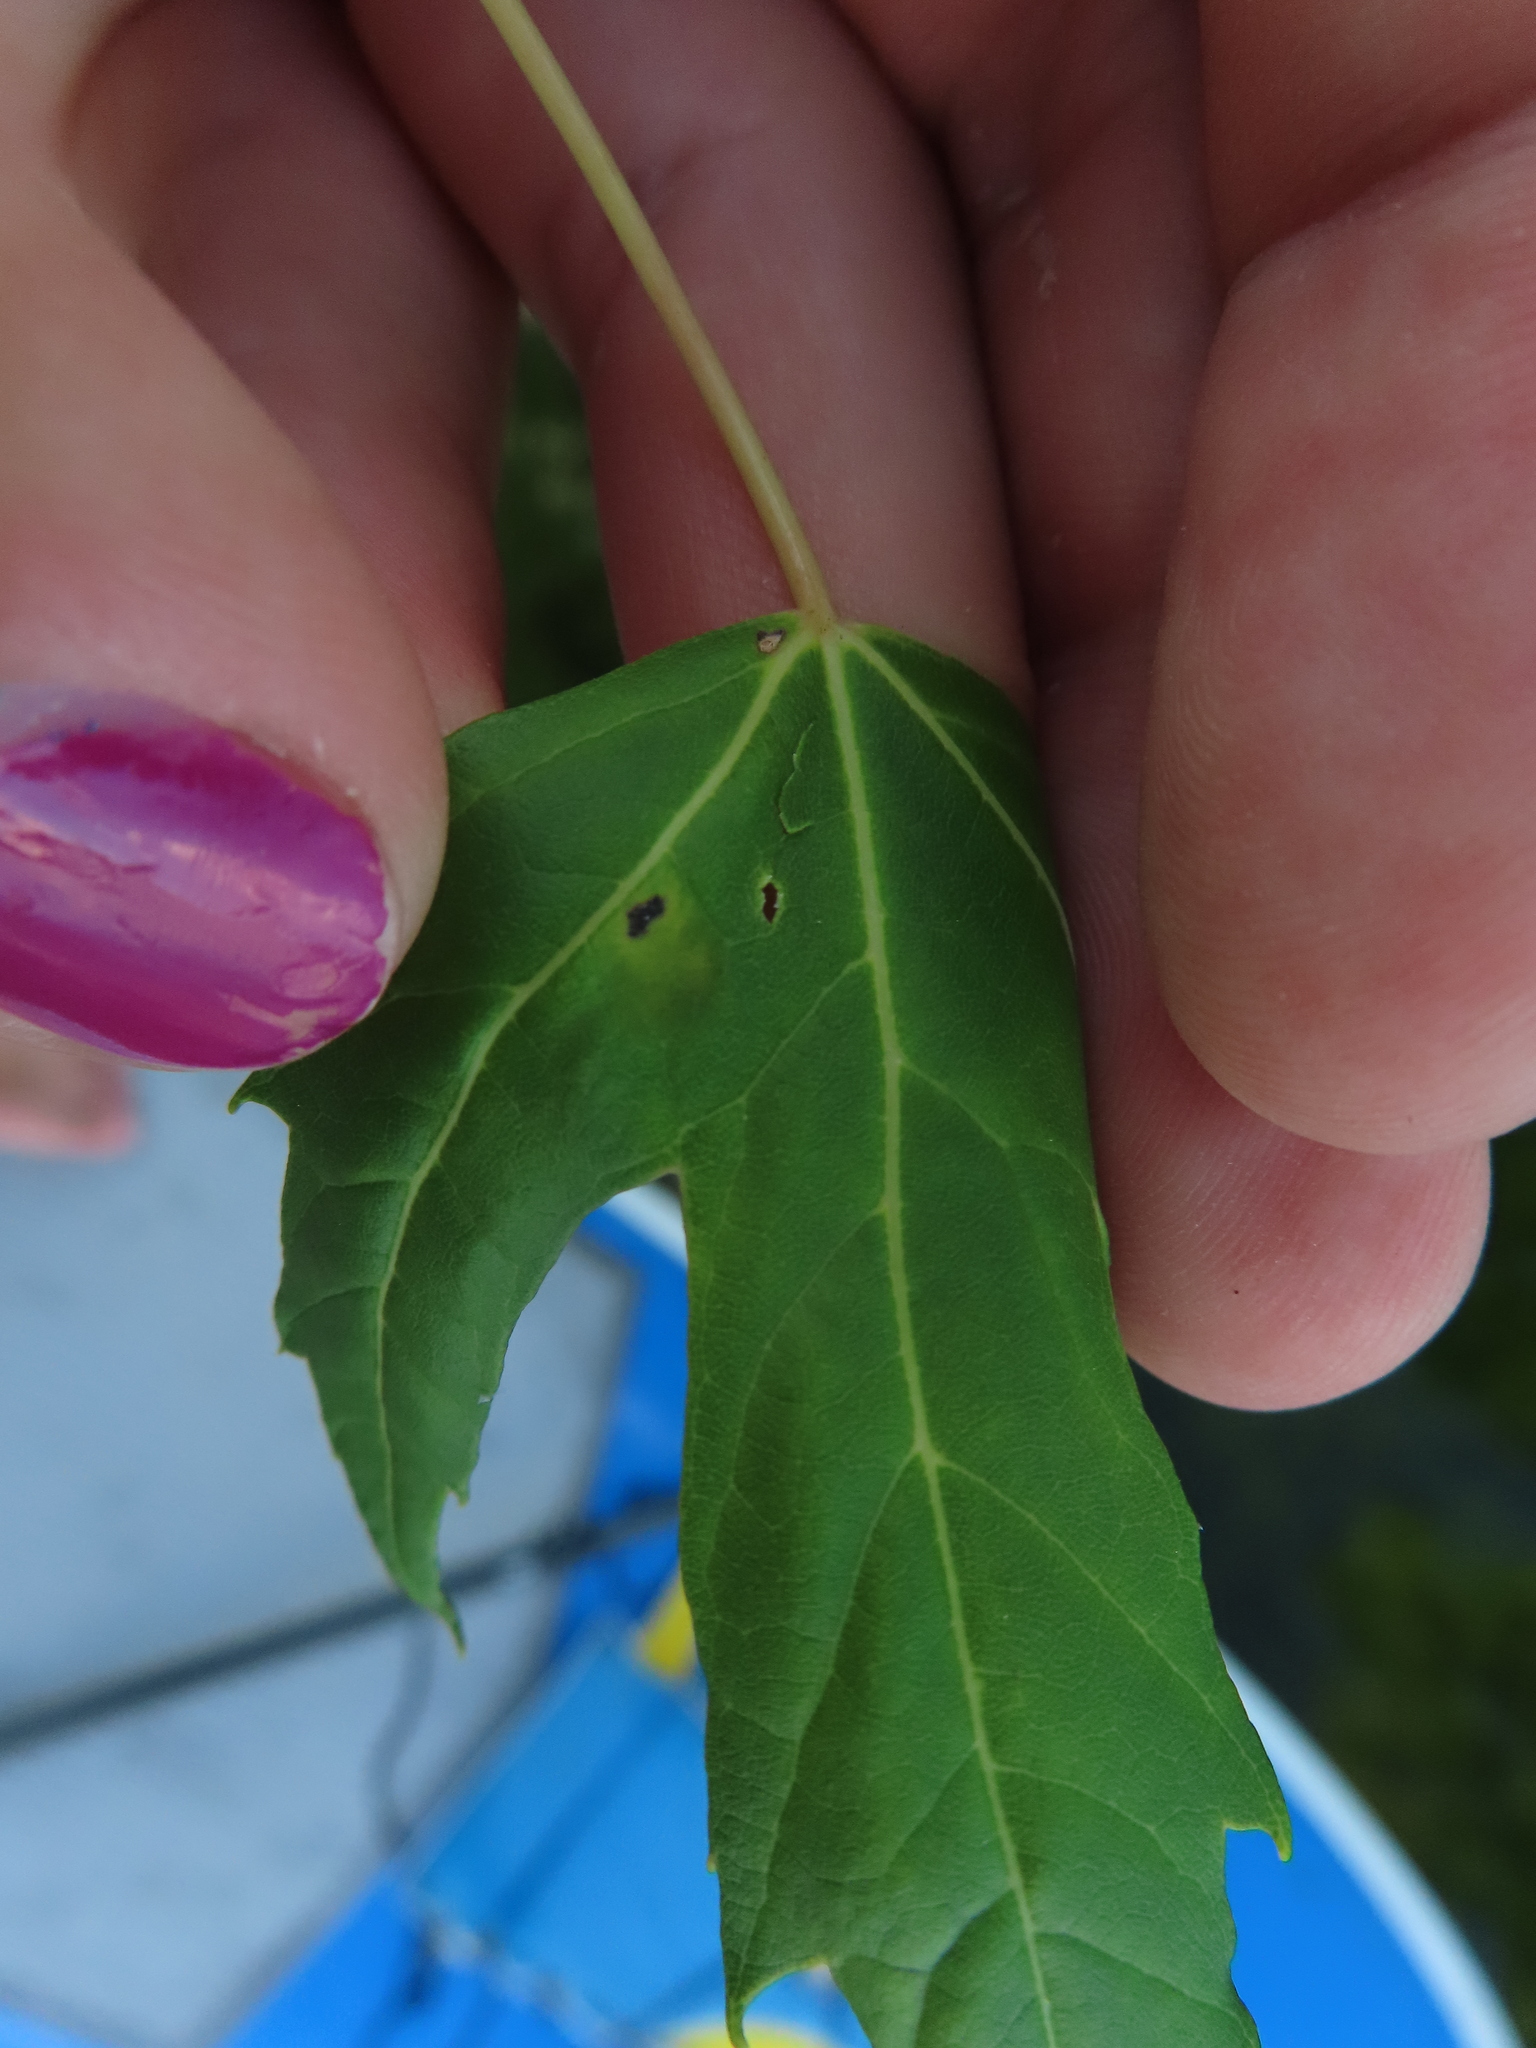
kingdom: Animalia
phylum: Arthropoda
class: Arachnida
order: Trombidiformes
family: Eriophyidae
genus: Eriophyes
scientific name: Eriophyes
